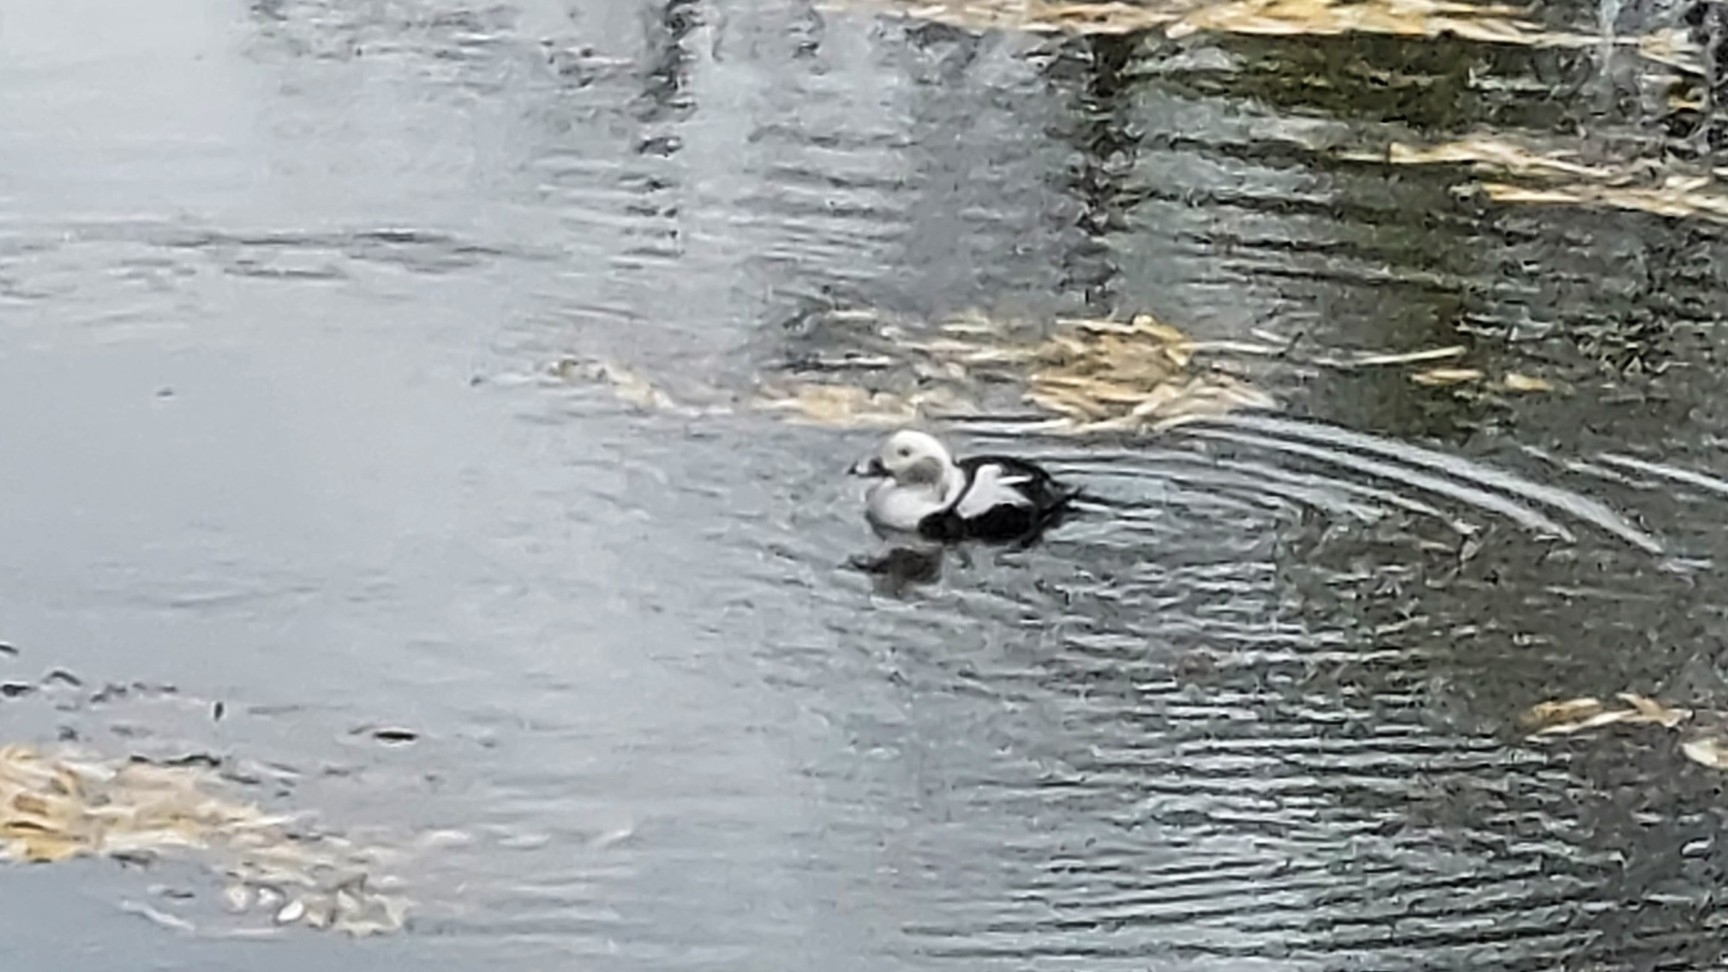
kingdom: Animalia
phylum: Chordata
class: Aves
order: Anseriformes
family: Anatidae
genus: Clangula
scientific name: Clangula hyemalis
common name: Long-tailed duck
